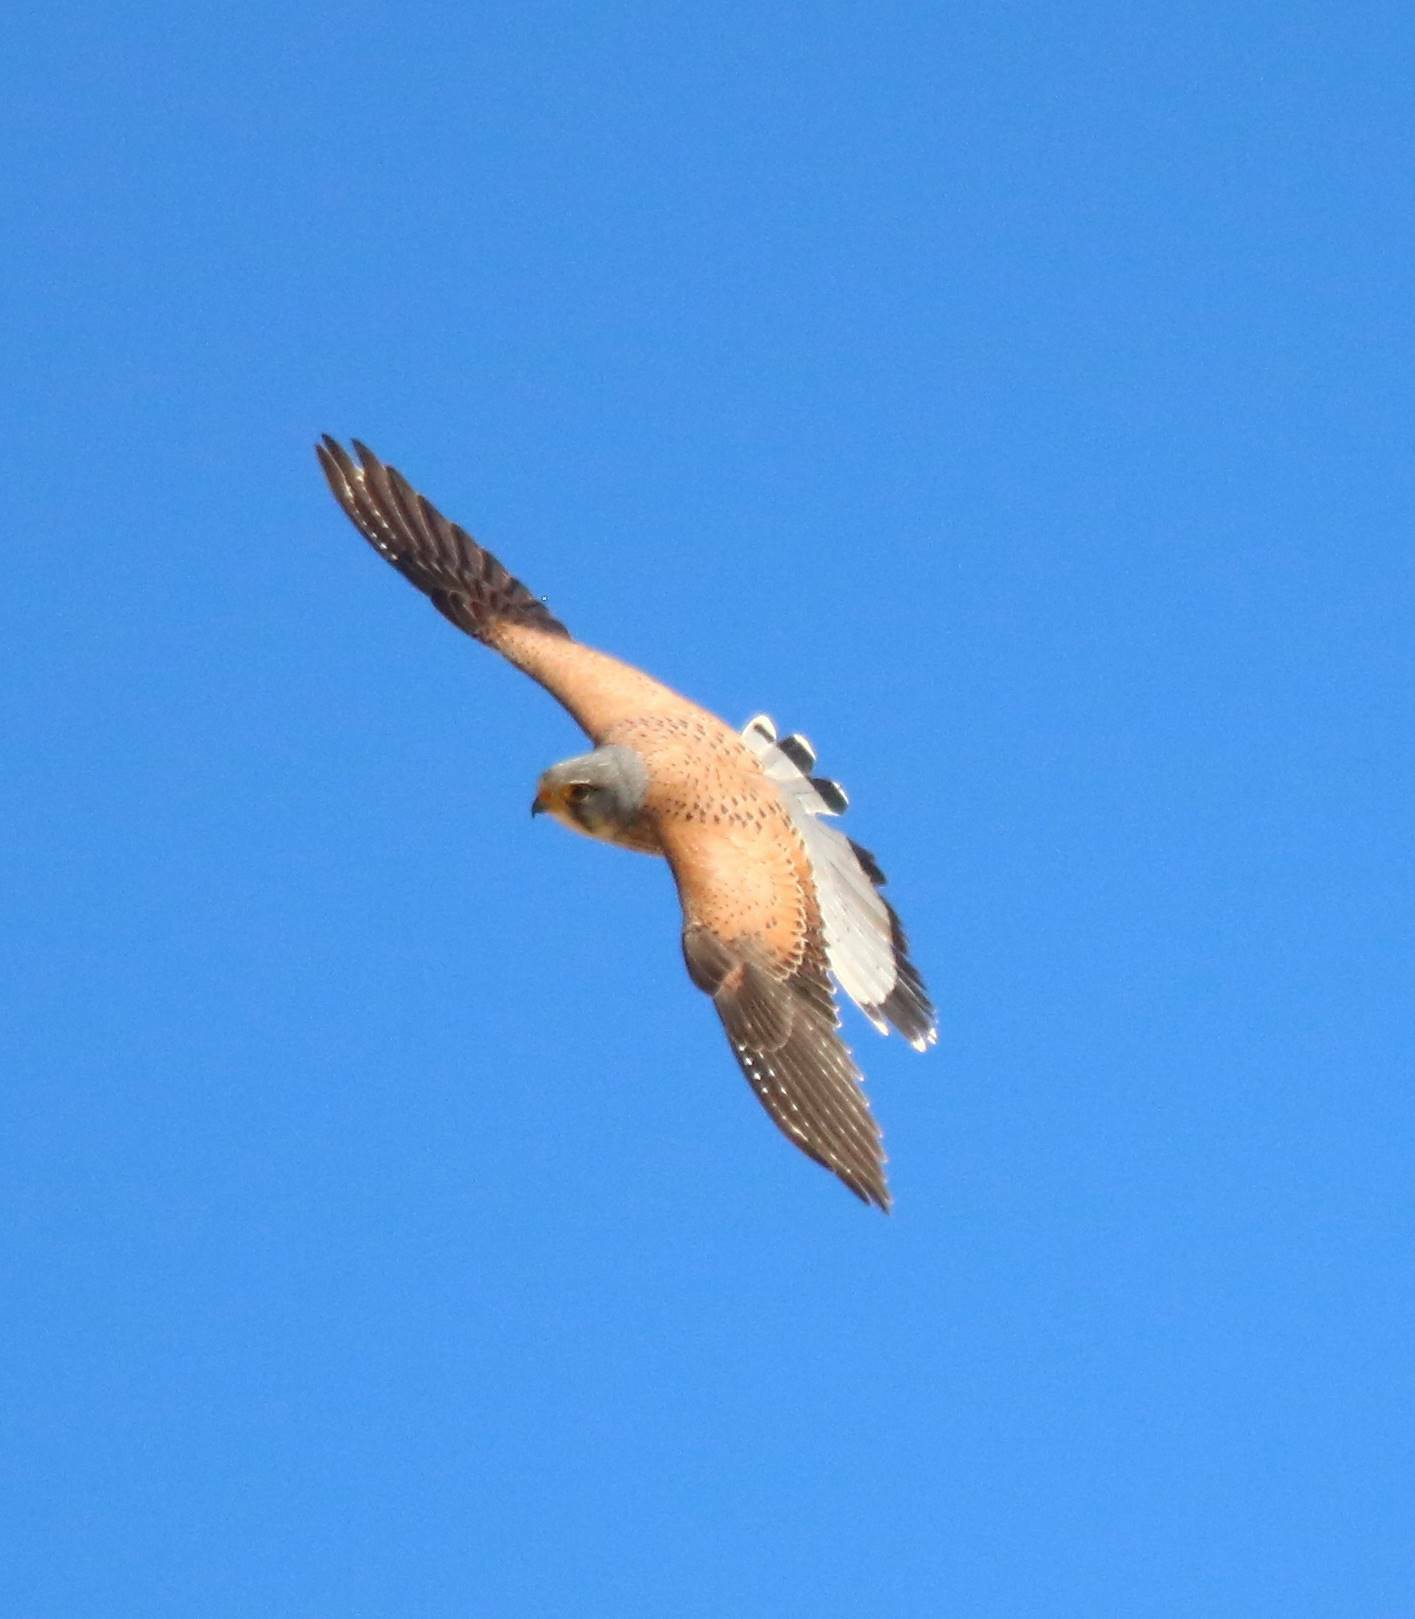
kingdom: Animalia
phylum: Chordata
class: Aves
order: Falconiformes
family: Falconidae
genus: Falco
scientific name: Falco tinnunculus
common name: Common kestrel
